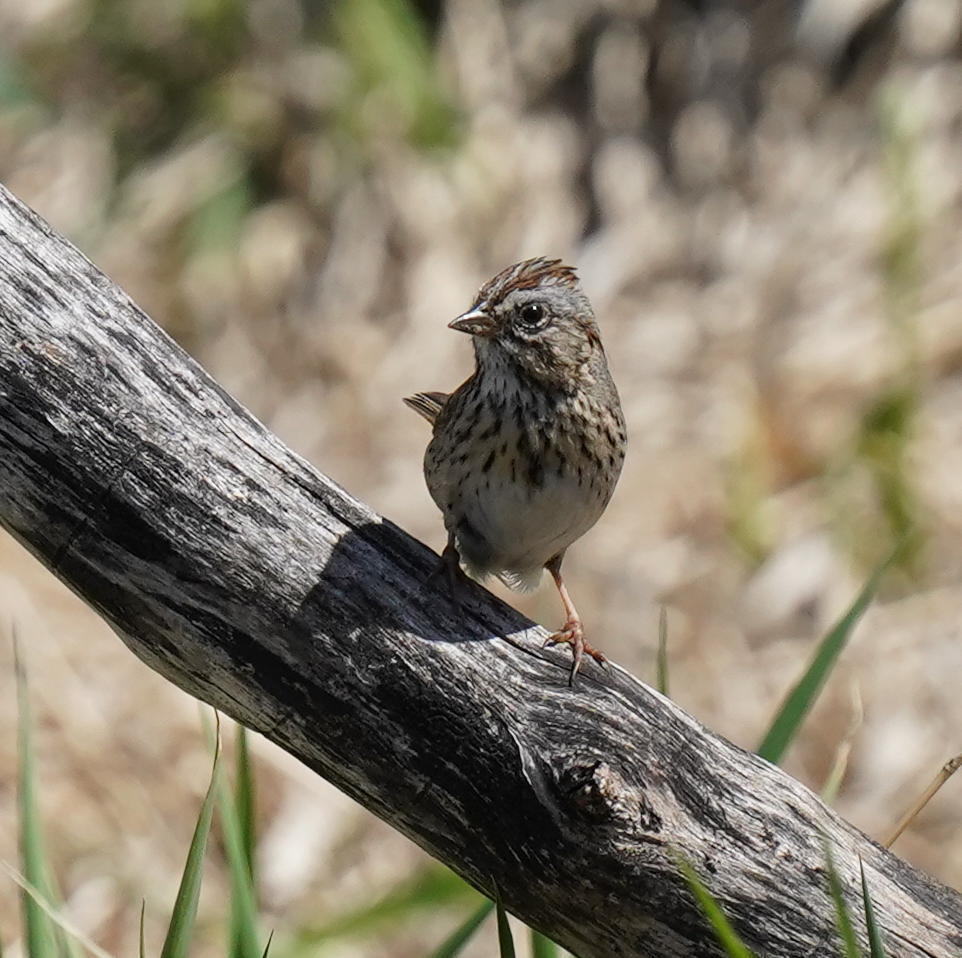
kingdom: Animalia
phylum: Chordata
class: Aves
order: Passeriformes
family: Passerellidae
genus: Melospiza
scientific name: Melospiza lincolnii
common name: Lincoln's sparrow
